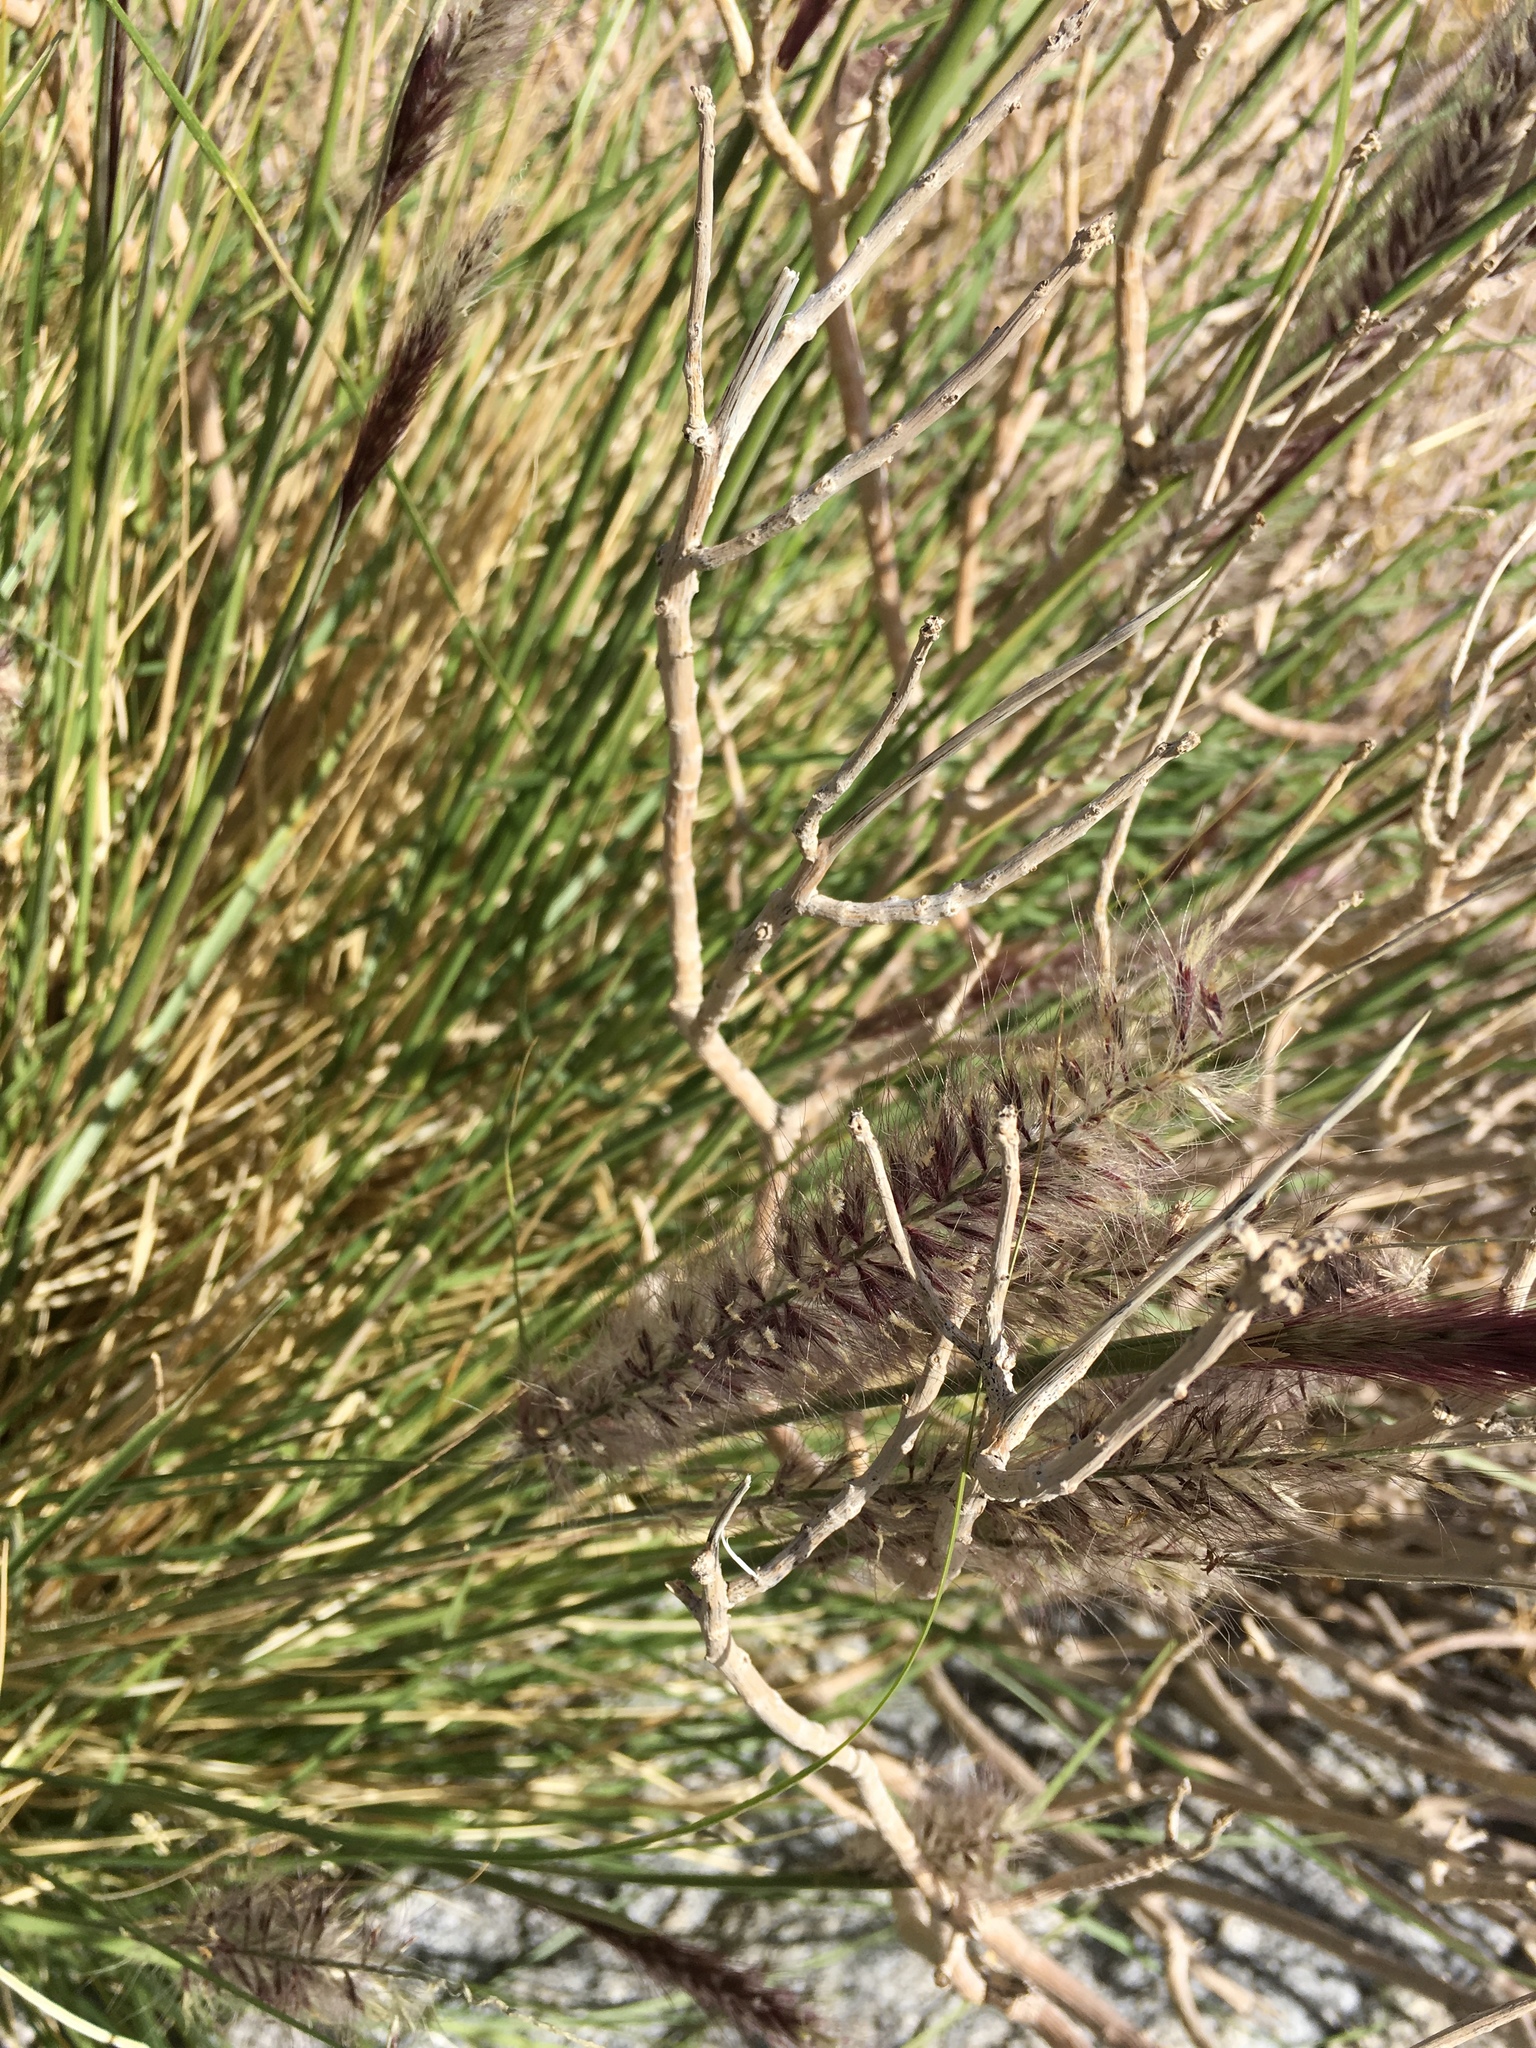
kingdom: Plantae
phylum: Tracheophyta
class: Liliopsida
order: Poales
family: Poaceae
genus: Cenchrus
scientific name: Cenchrus setaceus
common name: Crimson fountaingrass
